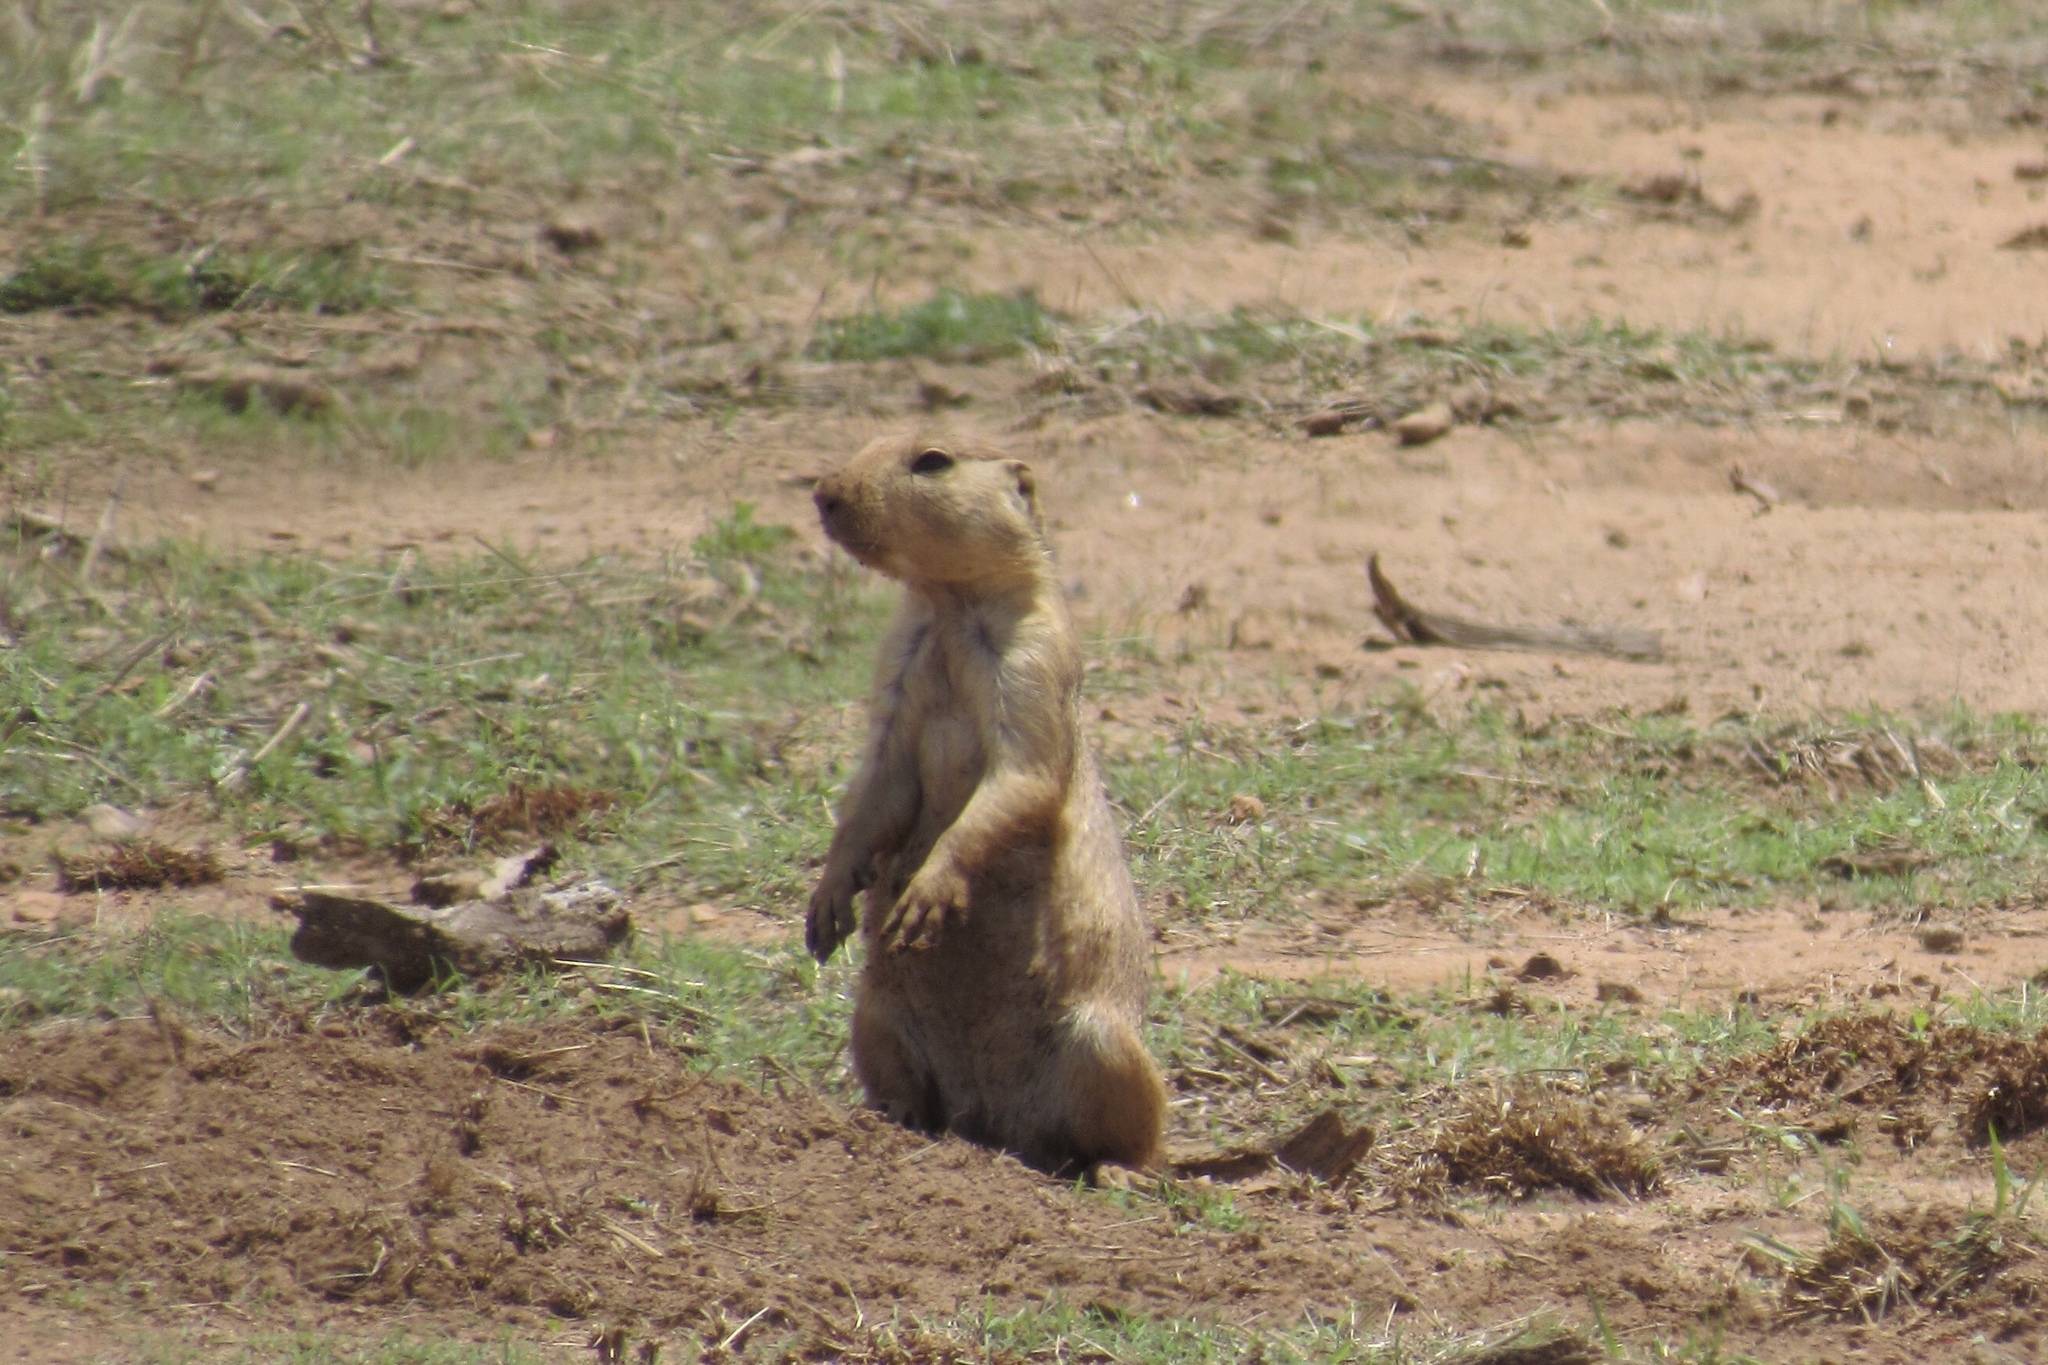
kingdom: Animalia
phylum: Chordata
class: Mammalia
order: Rodentia
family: Sciuridae
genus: Cynomys
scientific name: Cynomys ludovicianus
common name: Black-tailed prairie dog
